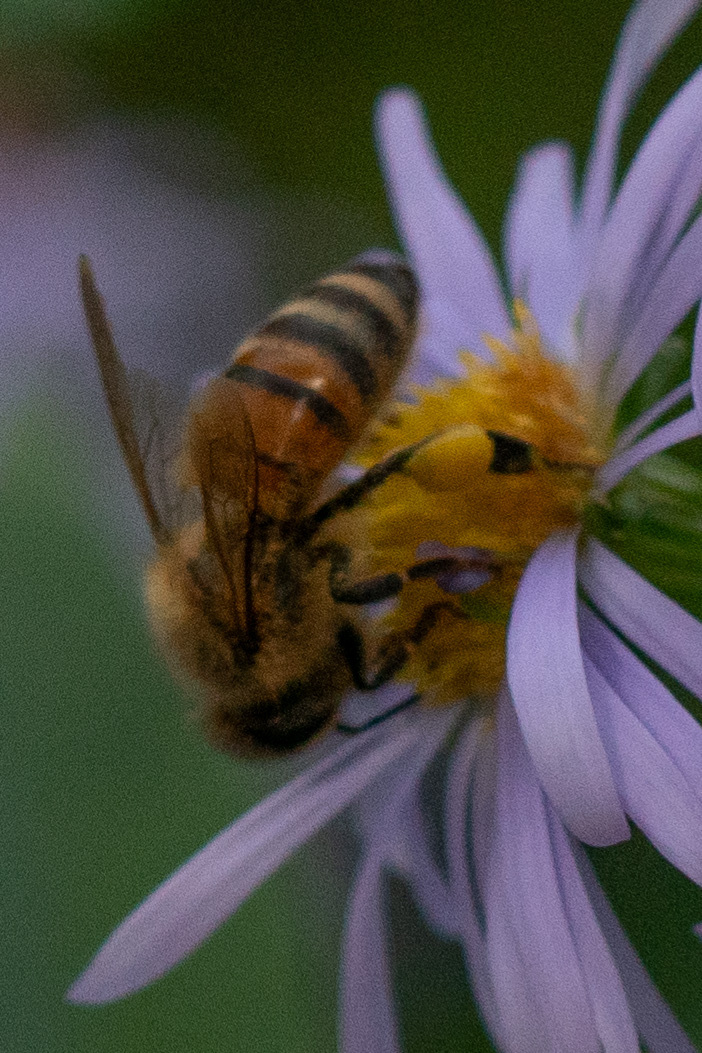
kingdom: Animalia
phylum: Arthropoda
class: Insecta
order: Hymenoptera
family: Apidae
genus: Apis
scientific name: Apis mellifera
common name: Honey bee
